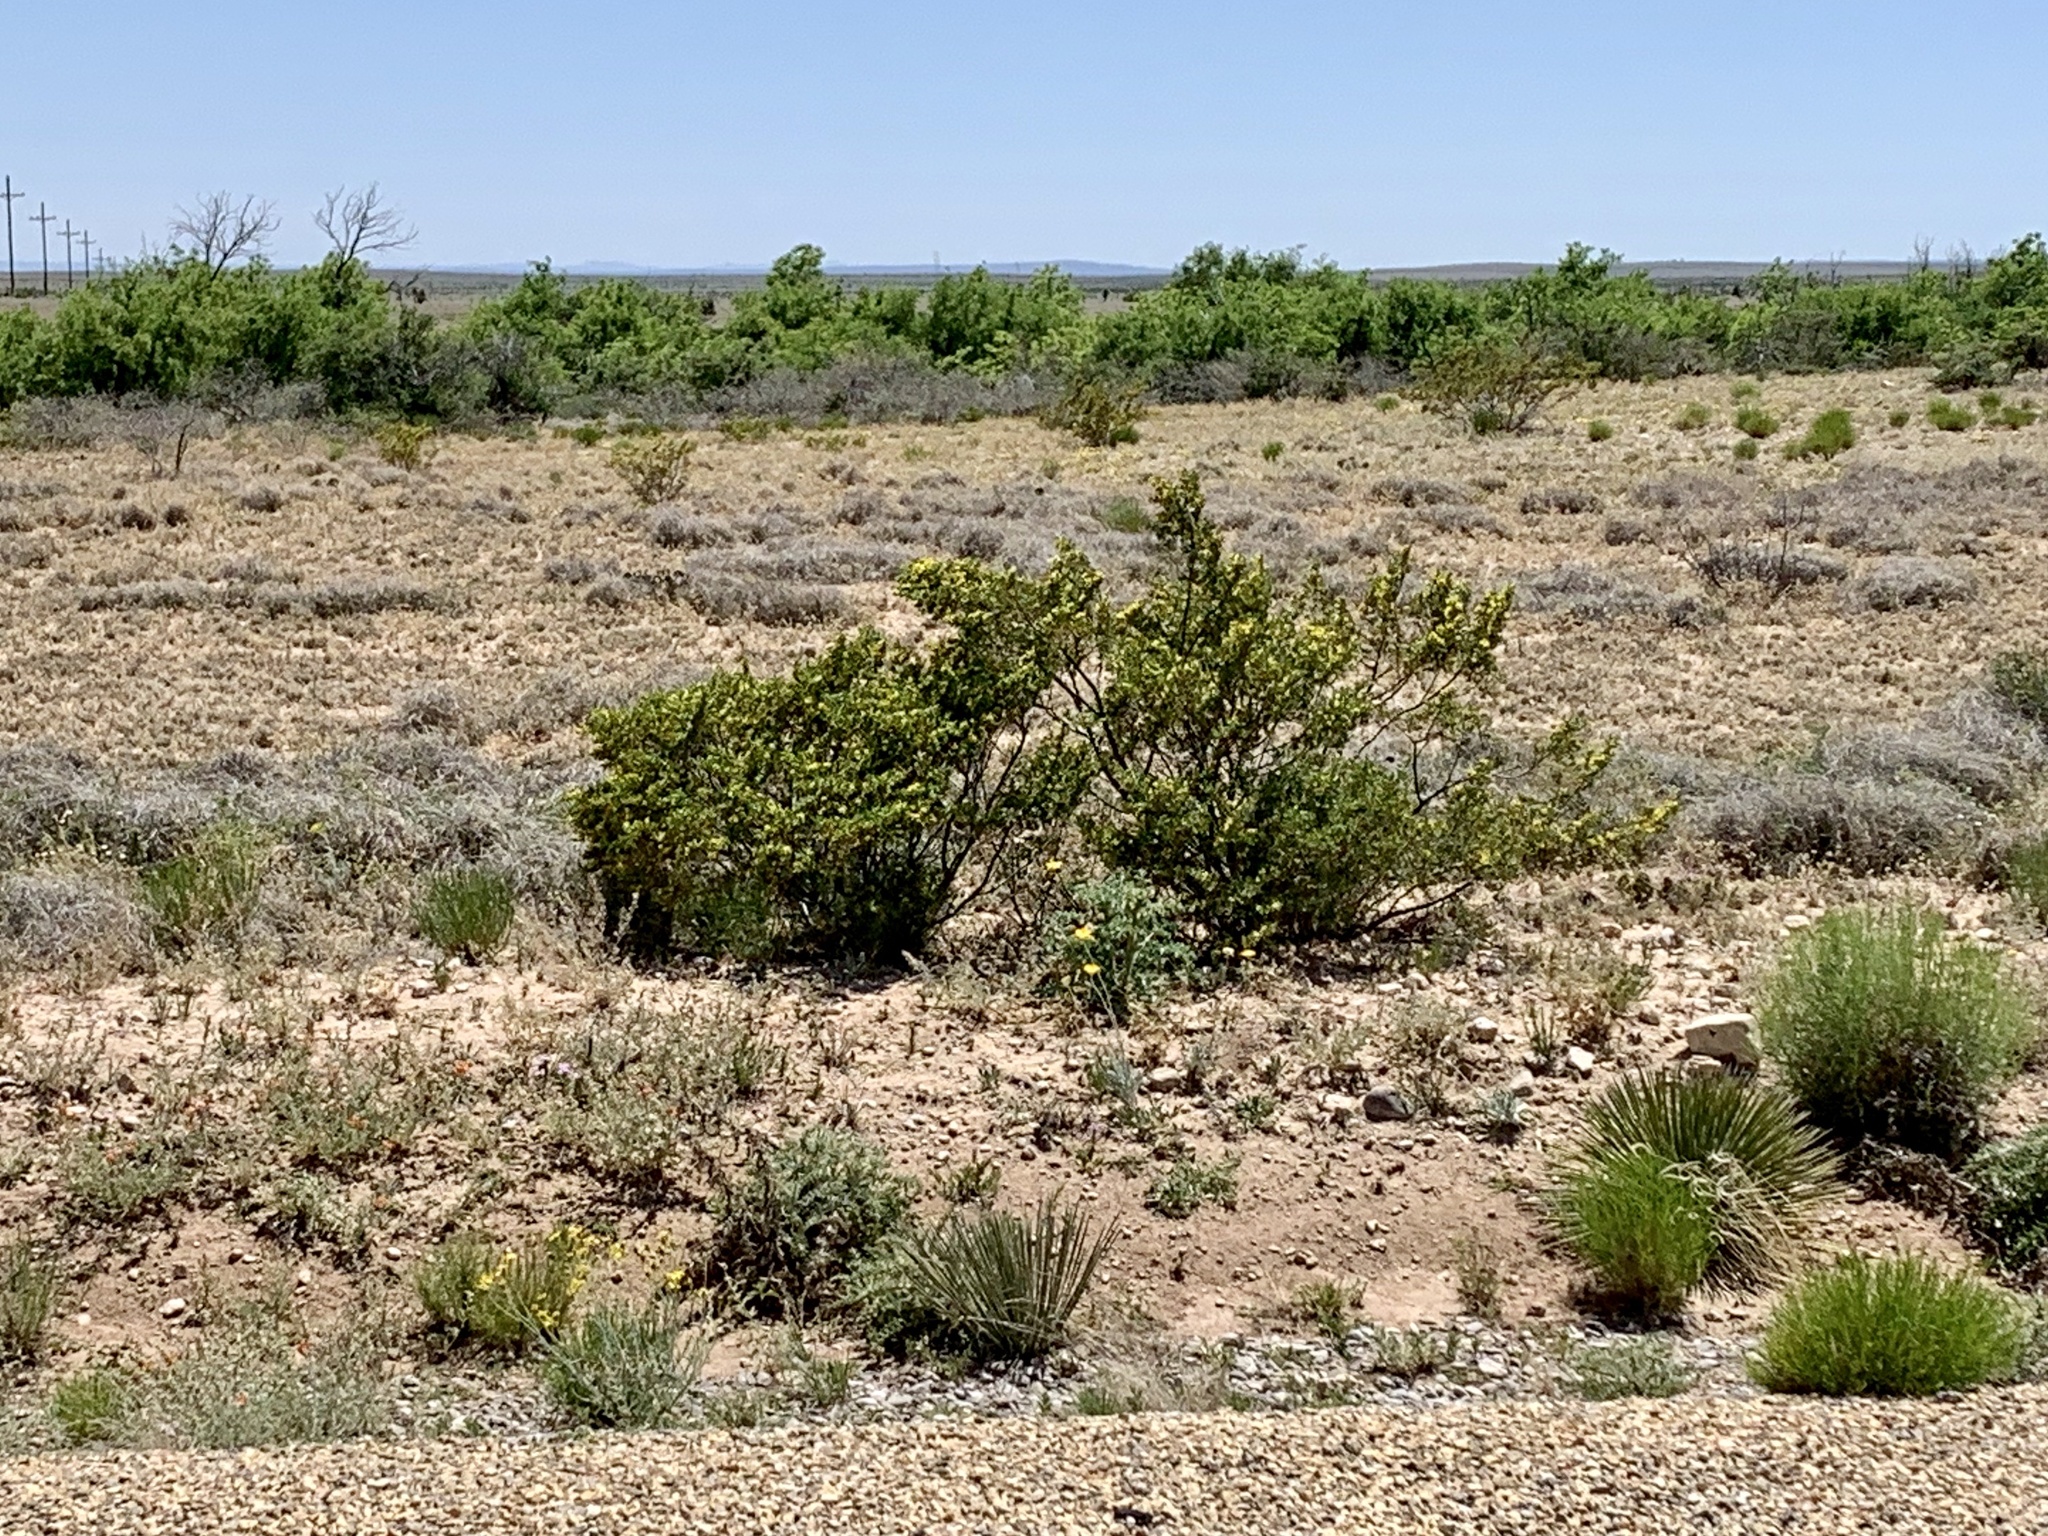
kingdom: Plantae
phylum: Tracheophyta
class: Magnoliopsida
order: Zygophyllales
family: Zygophyllaceae
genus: Larrea
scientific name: Larrea tridentata
